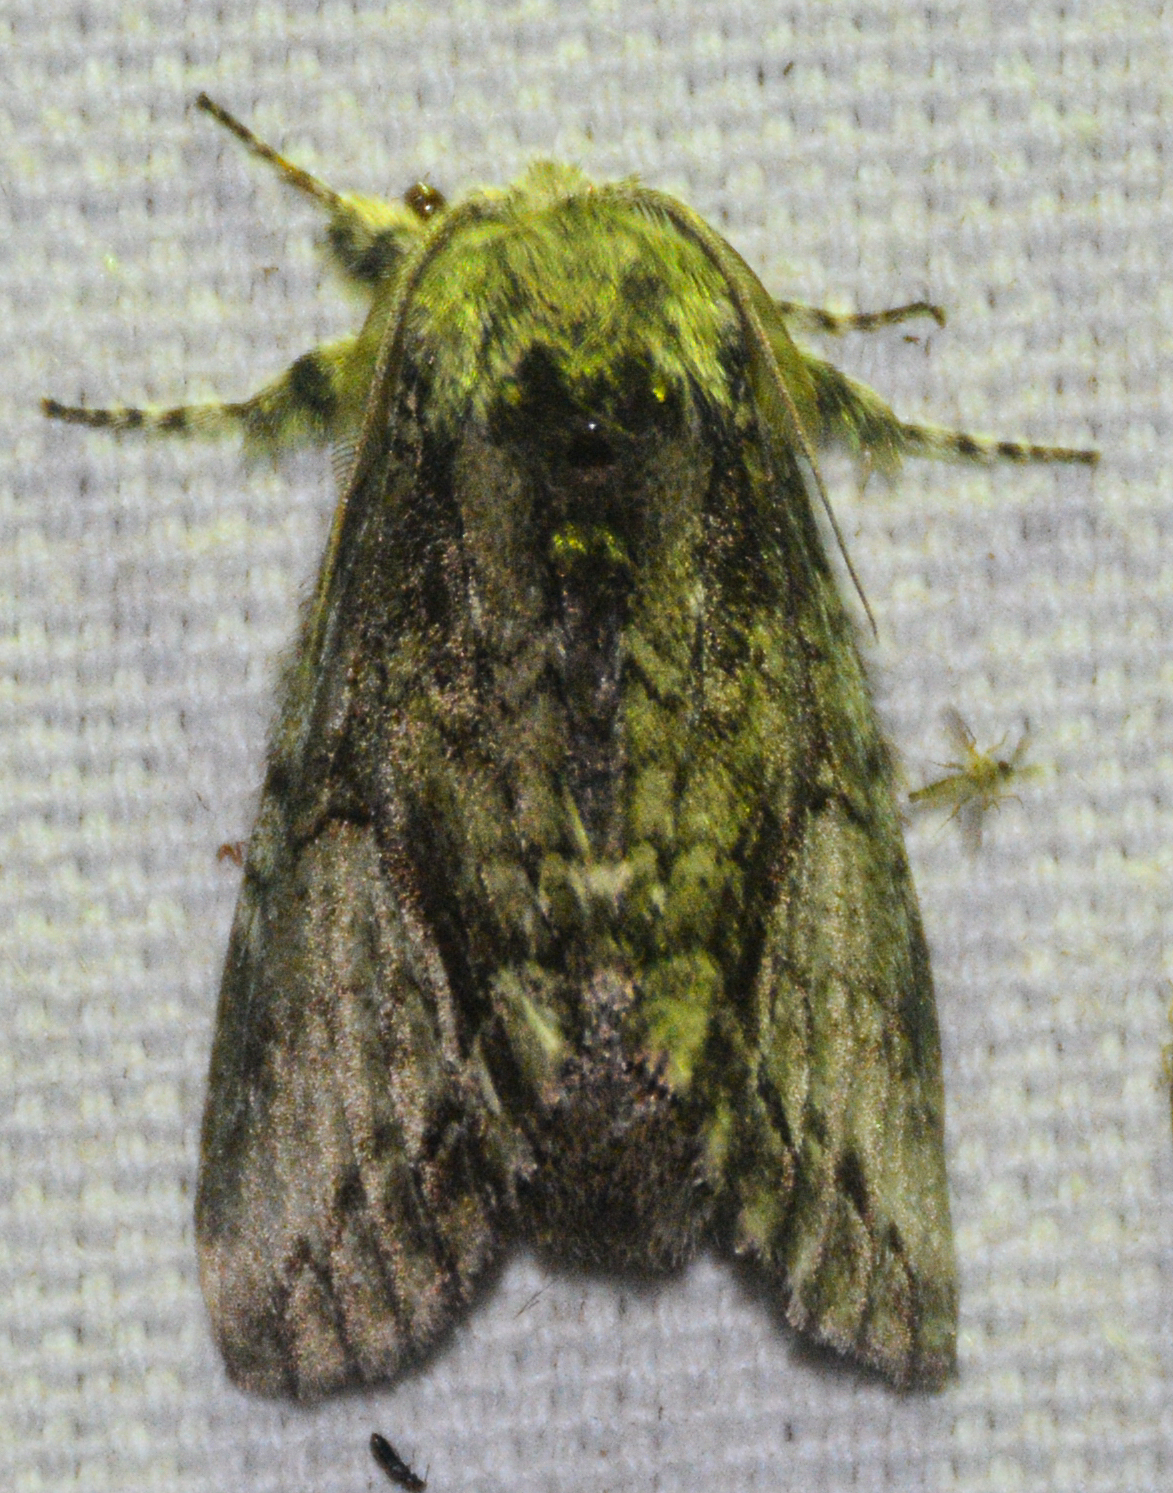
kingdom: Animalia
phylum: Arthropoda
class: Insecta
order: Lepidoptera
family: Notodontidae
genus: Heterocampa
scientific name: Heterocampa
